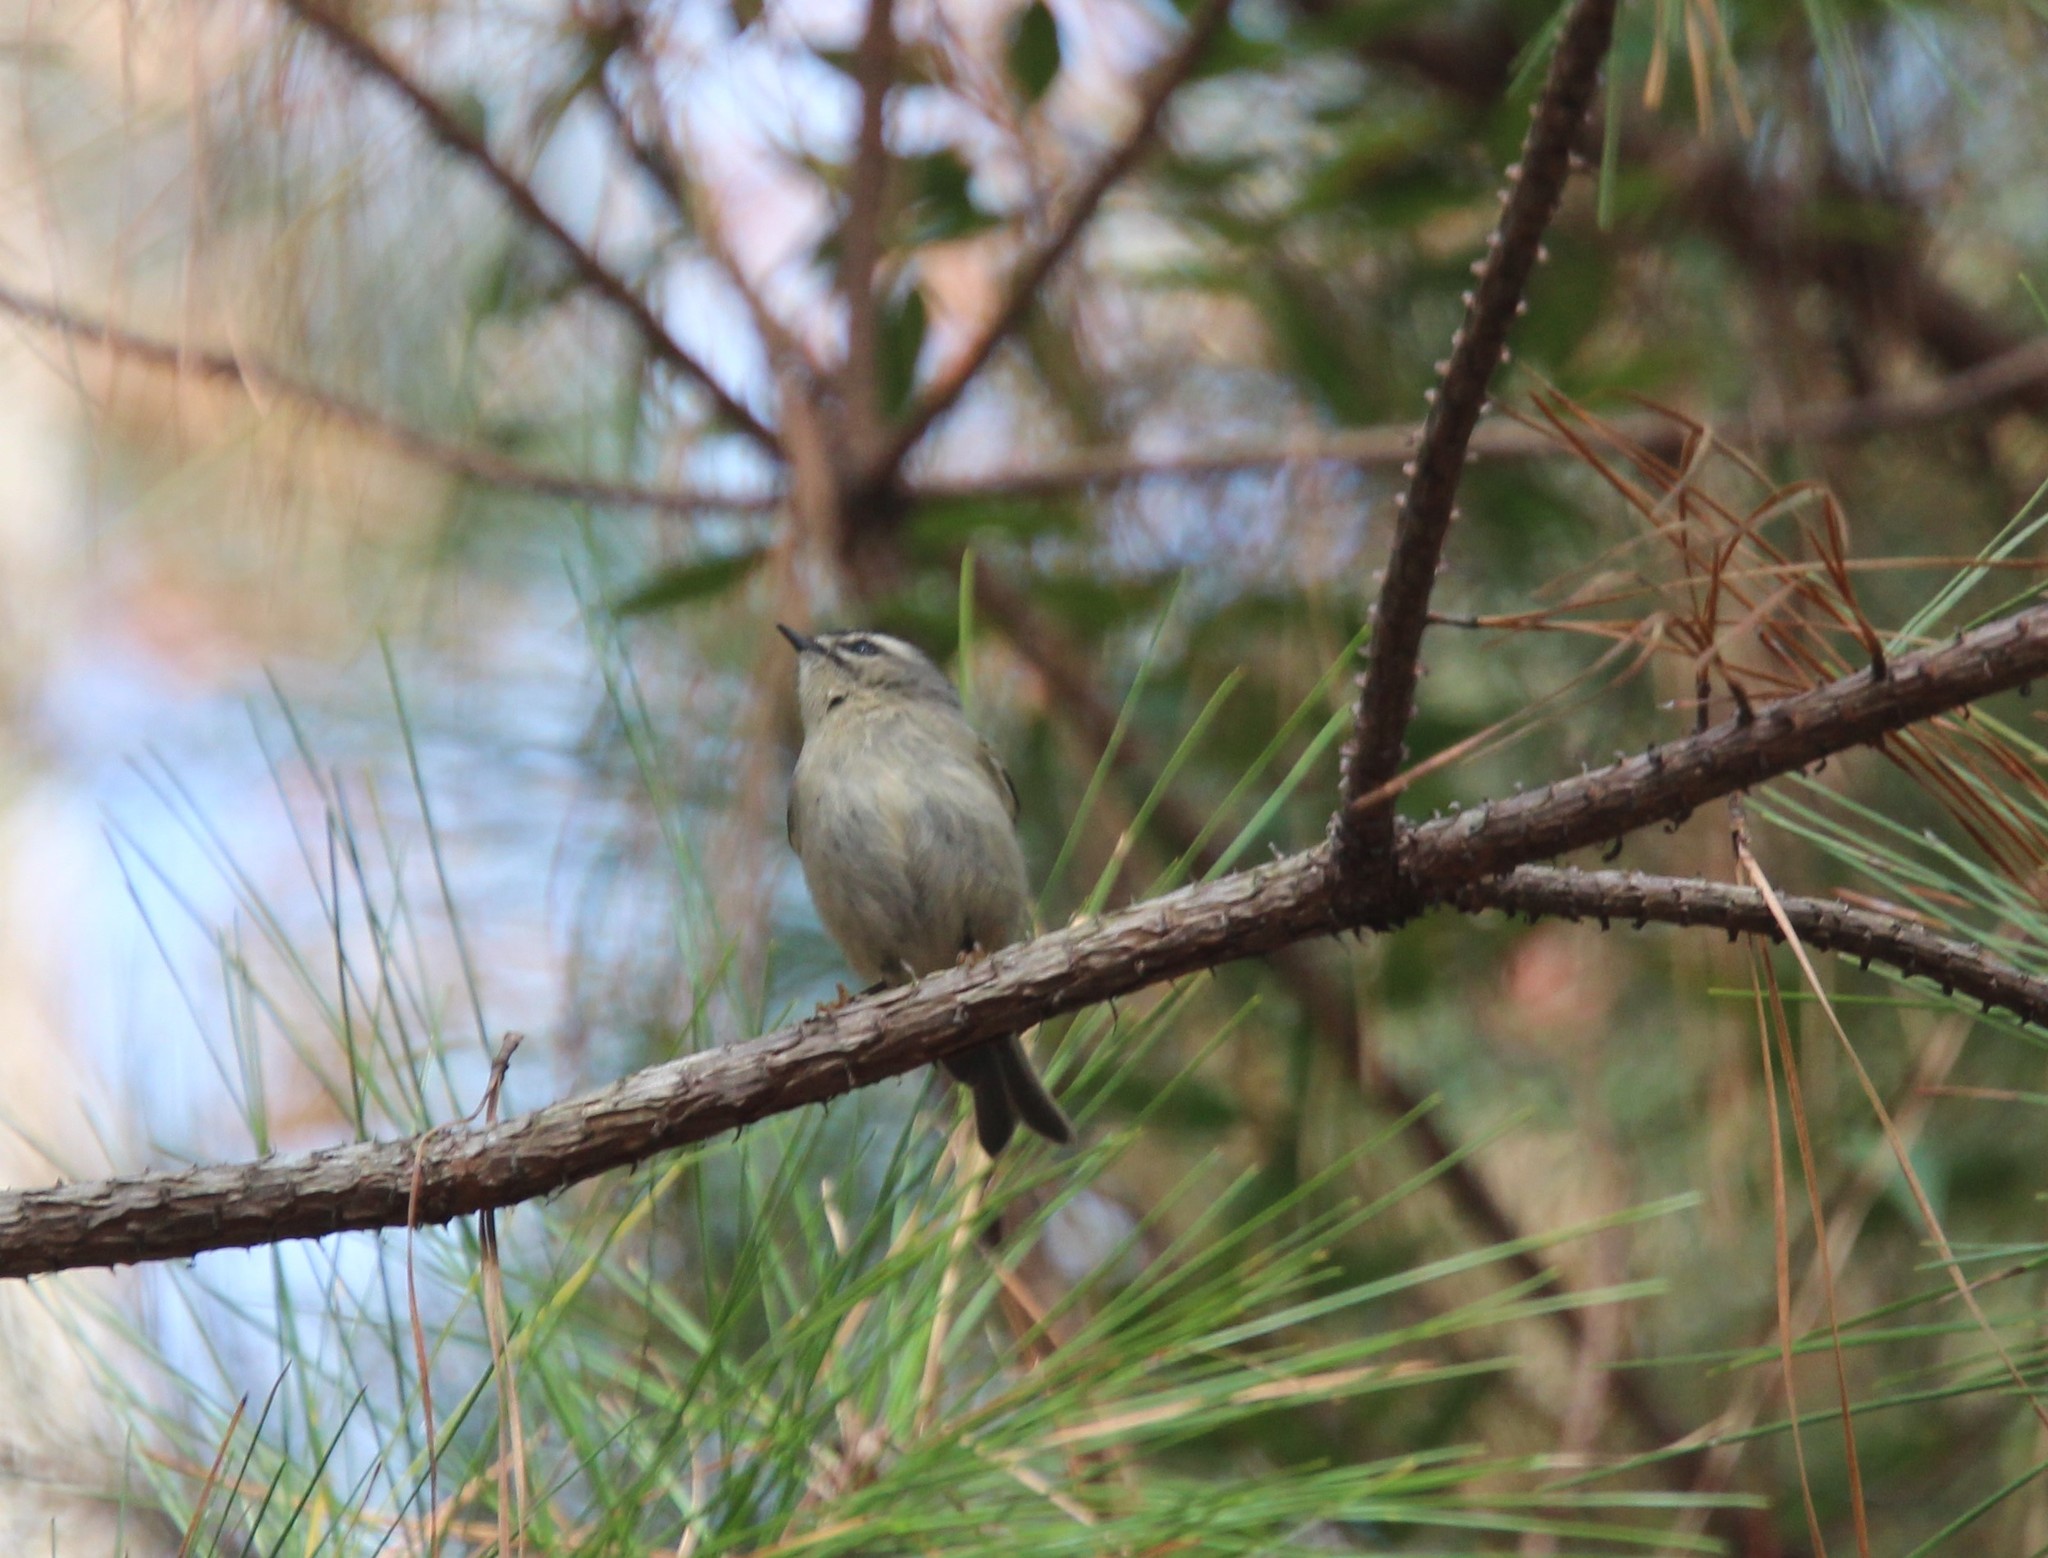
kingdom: Animalia
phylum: Chordata
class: Aves
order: Passeriformes
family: Regulidae
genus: Regulus
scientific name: Regulus satrapa
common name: Golden-crowned kinglet
